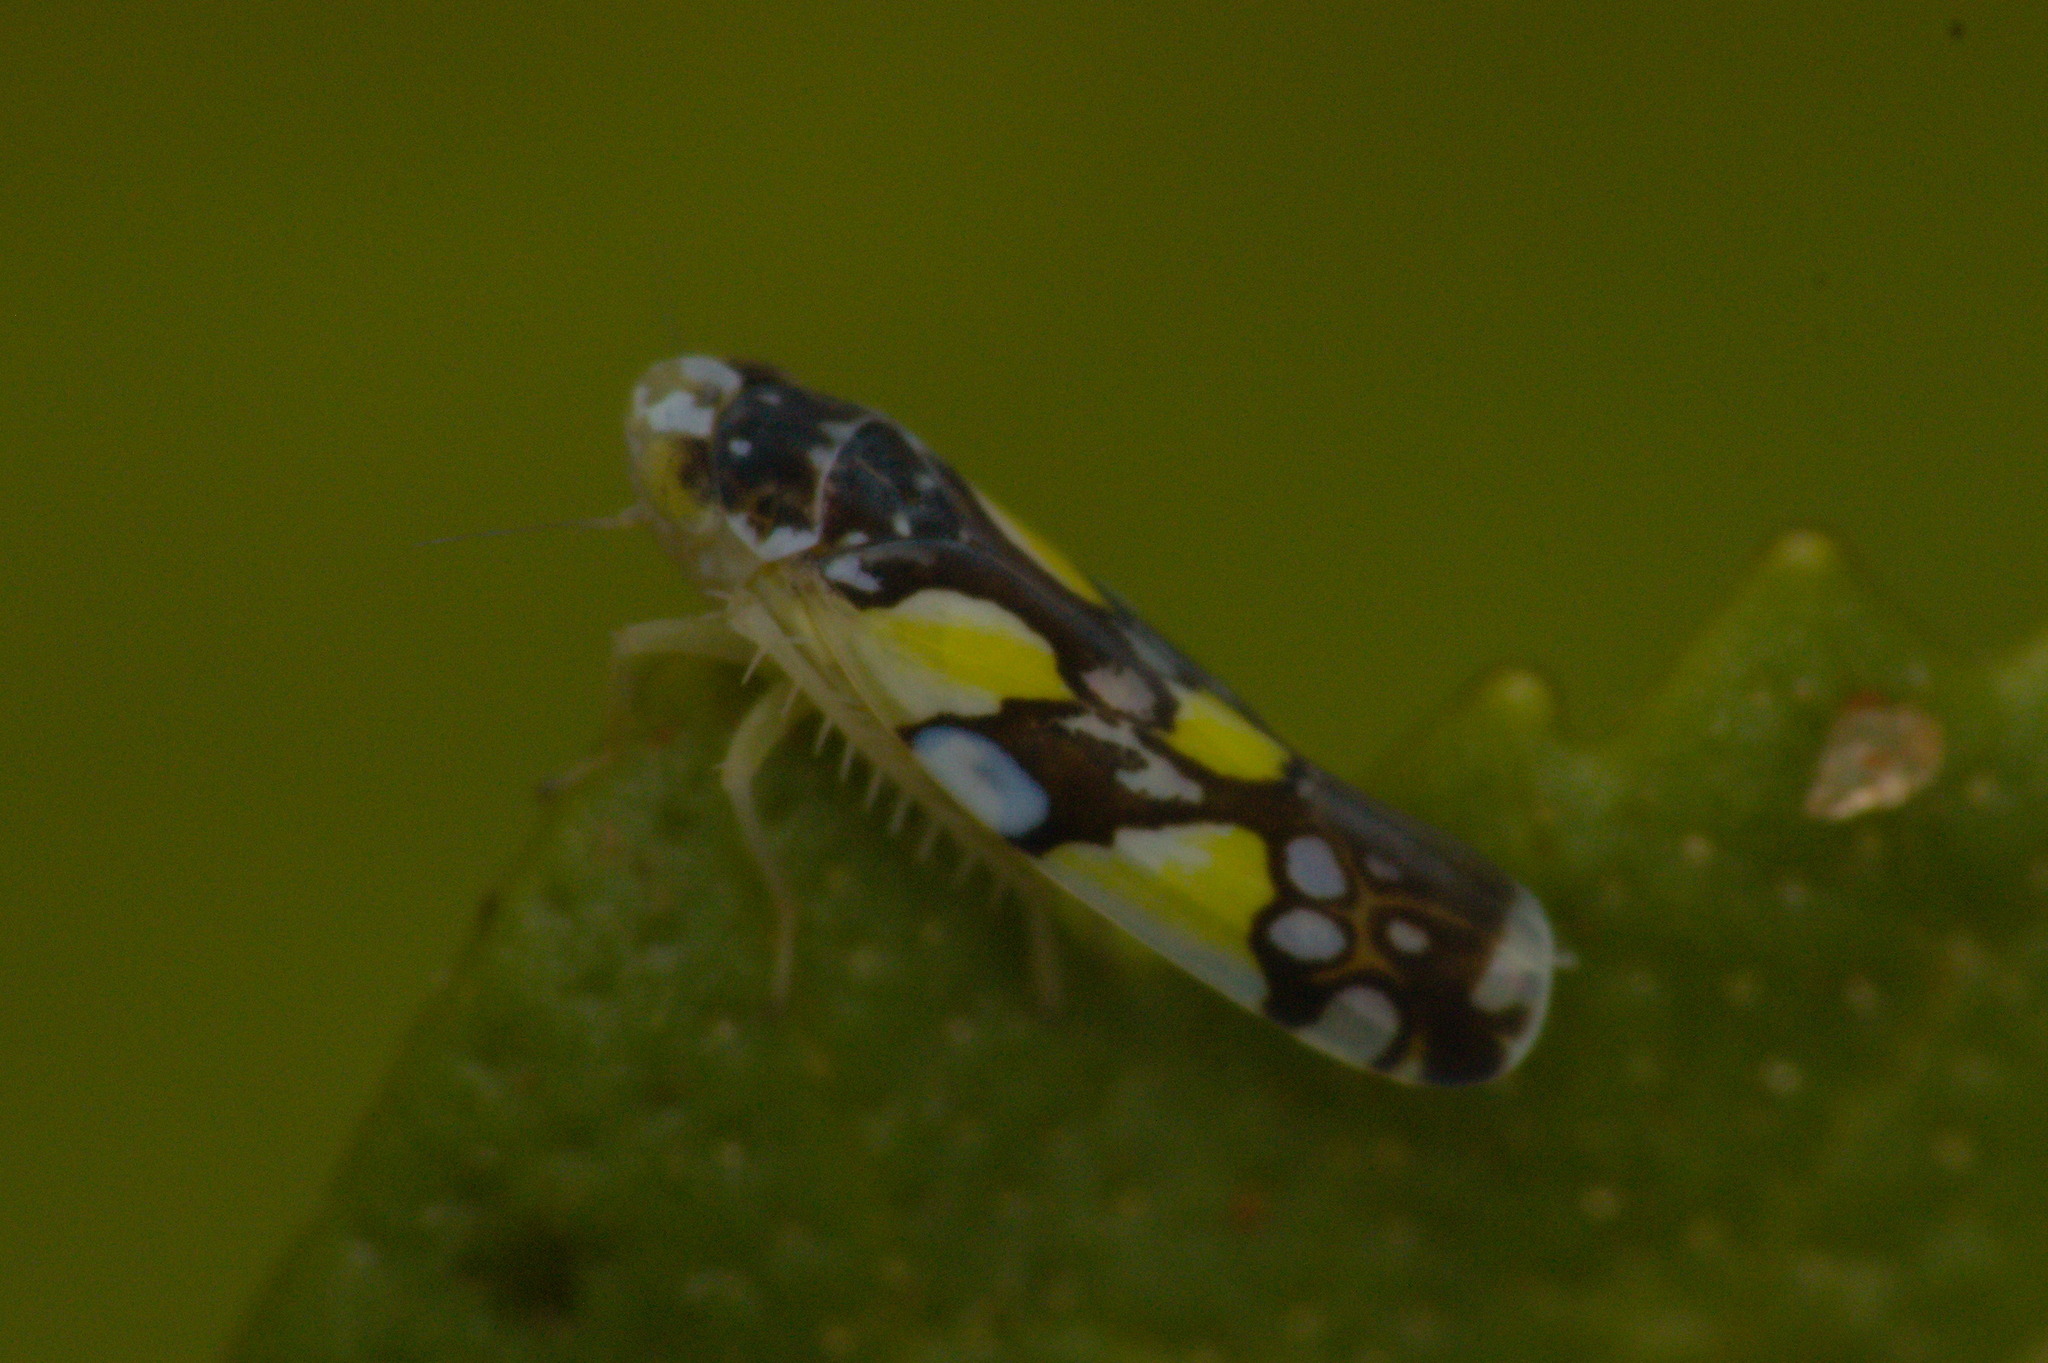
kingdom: Animalia
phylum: Arthropoda
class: Insecta
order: Hemiptera
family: Cicadellidae
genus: Protalebrella
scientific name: Protalebrella brasiliensis
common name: Brasilian leafhopper
